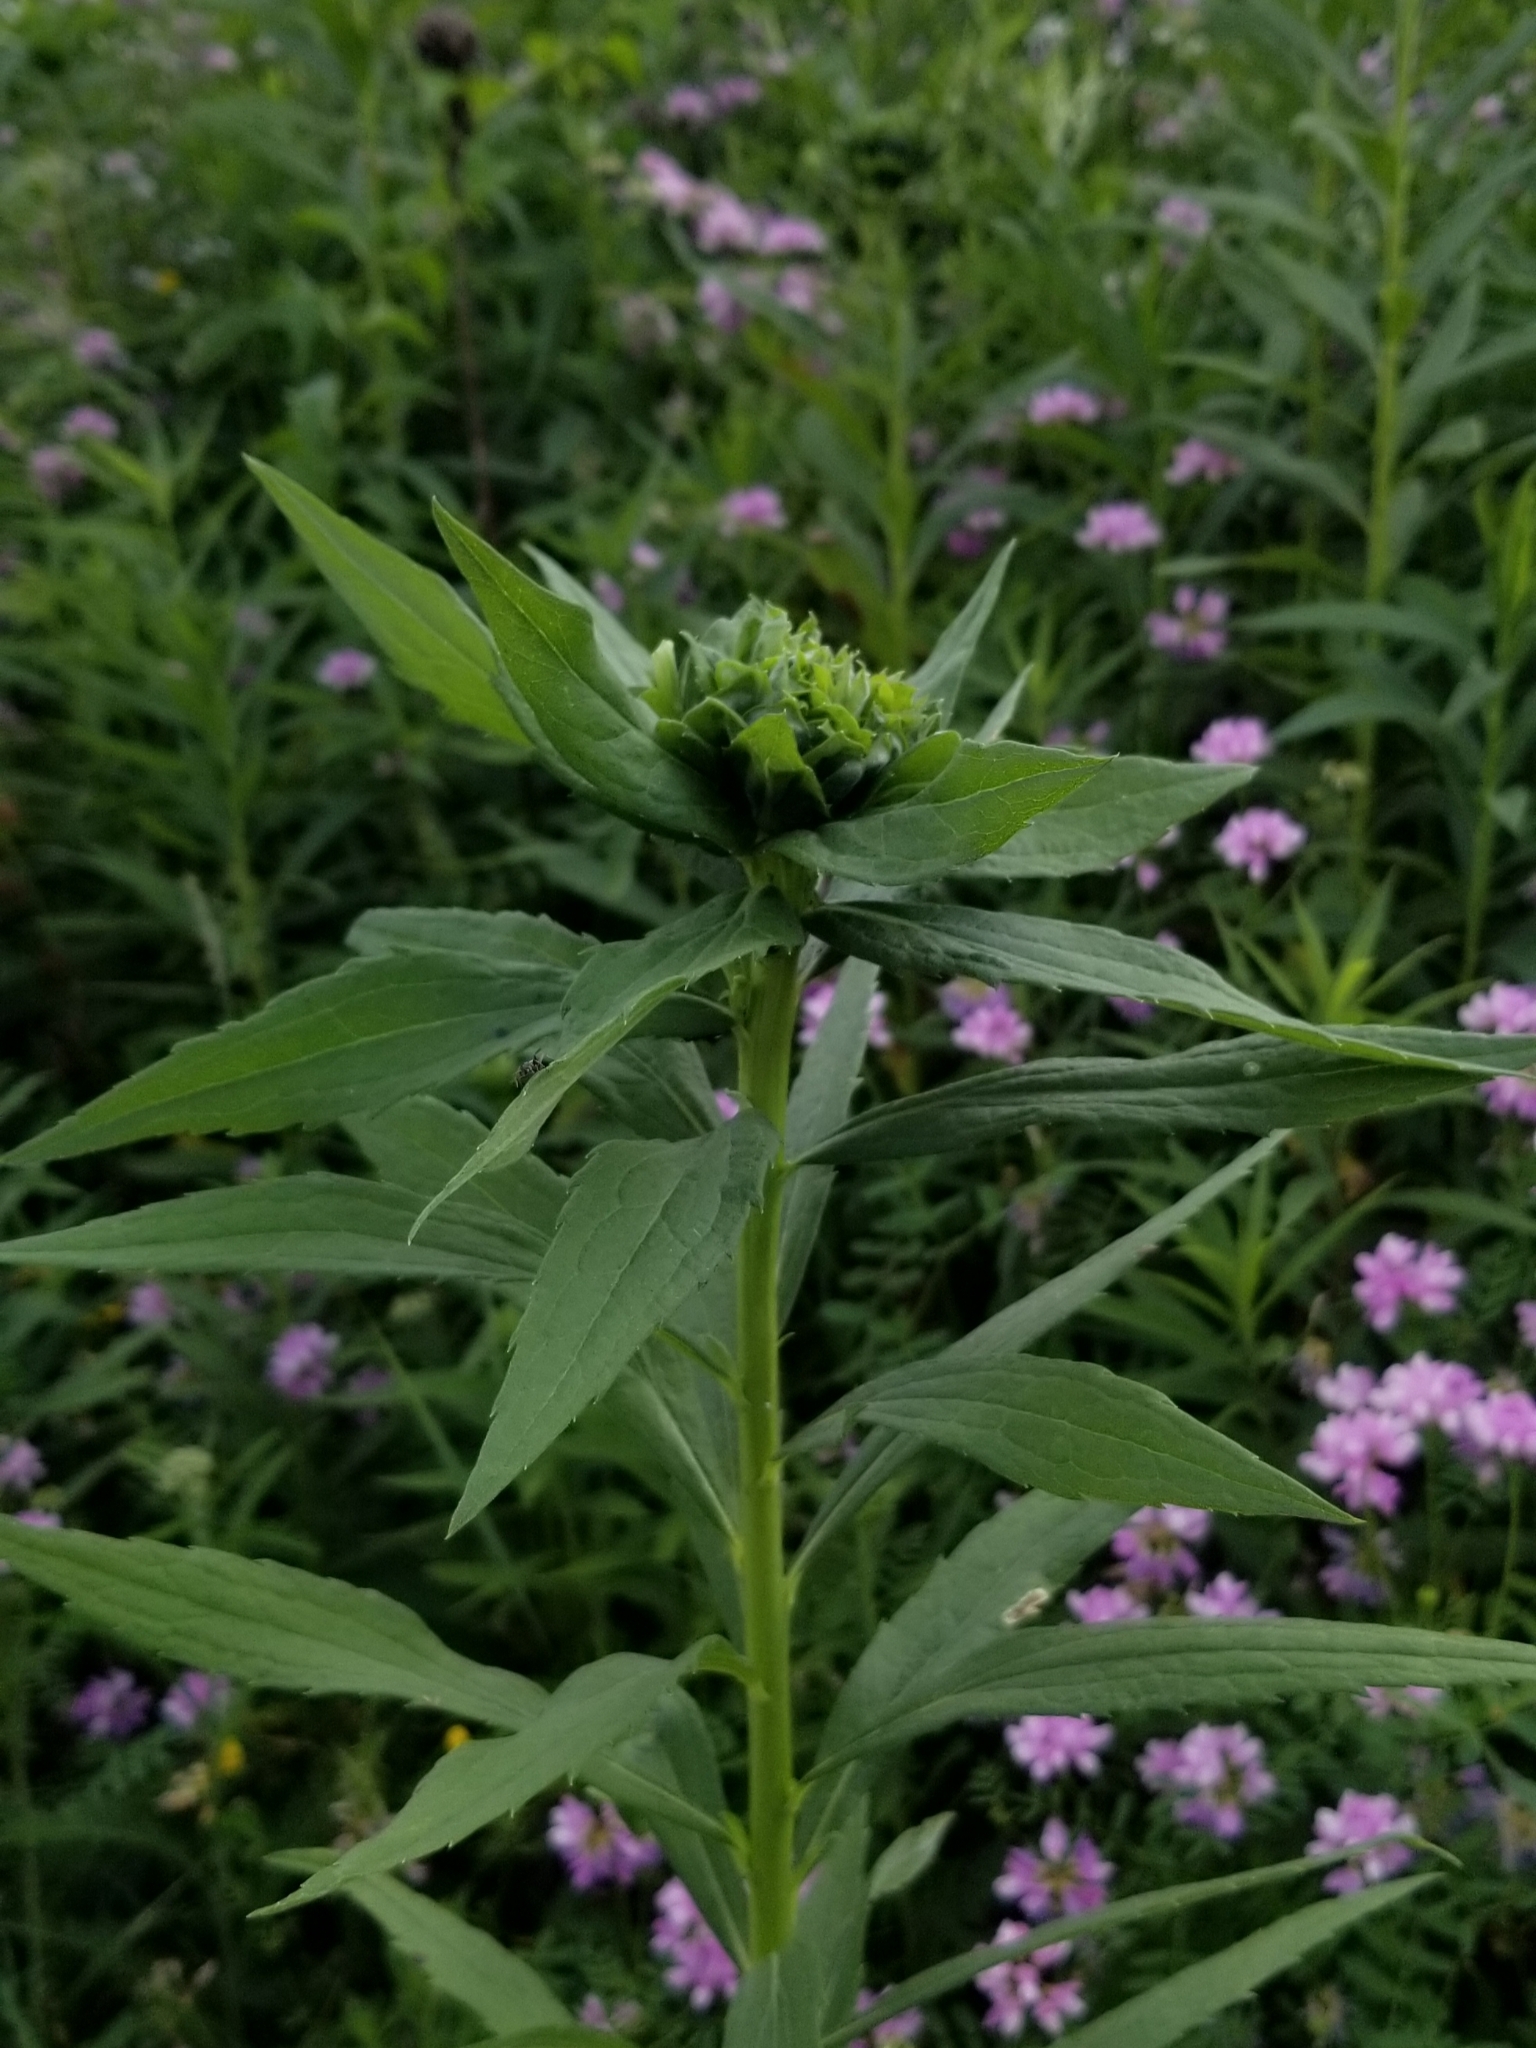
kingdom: Animalia
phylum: Arthropoda
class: Insecta
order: Diptera
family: Cecidomyiidae
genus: Rhopalomyia
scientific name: Rhopalomyia solidaginis
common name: Goldenrod bunch gall midge
